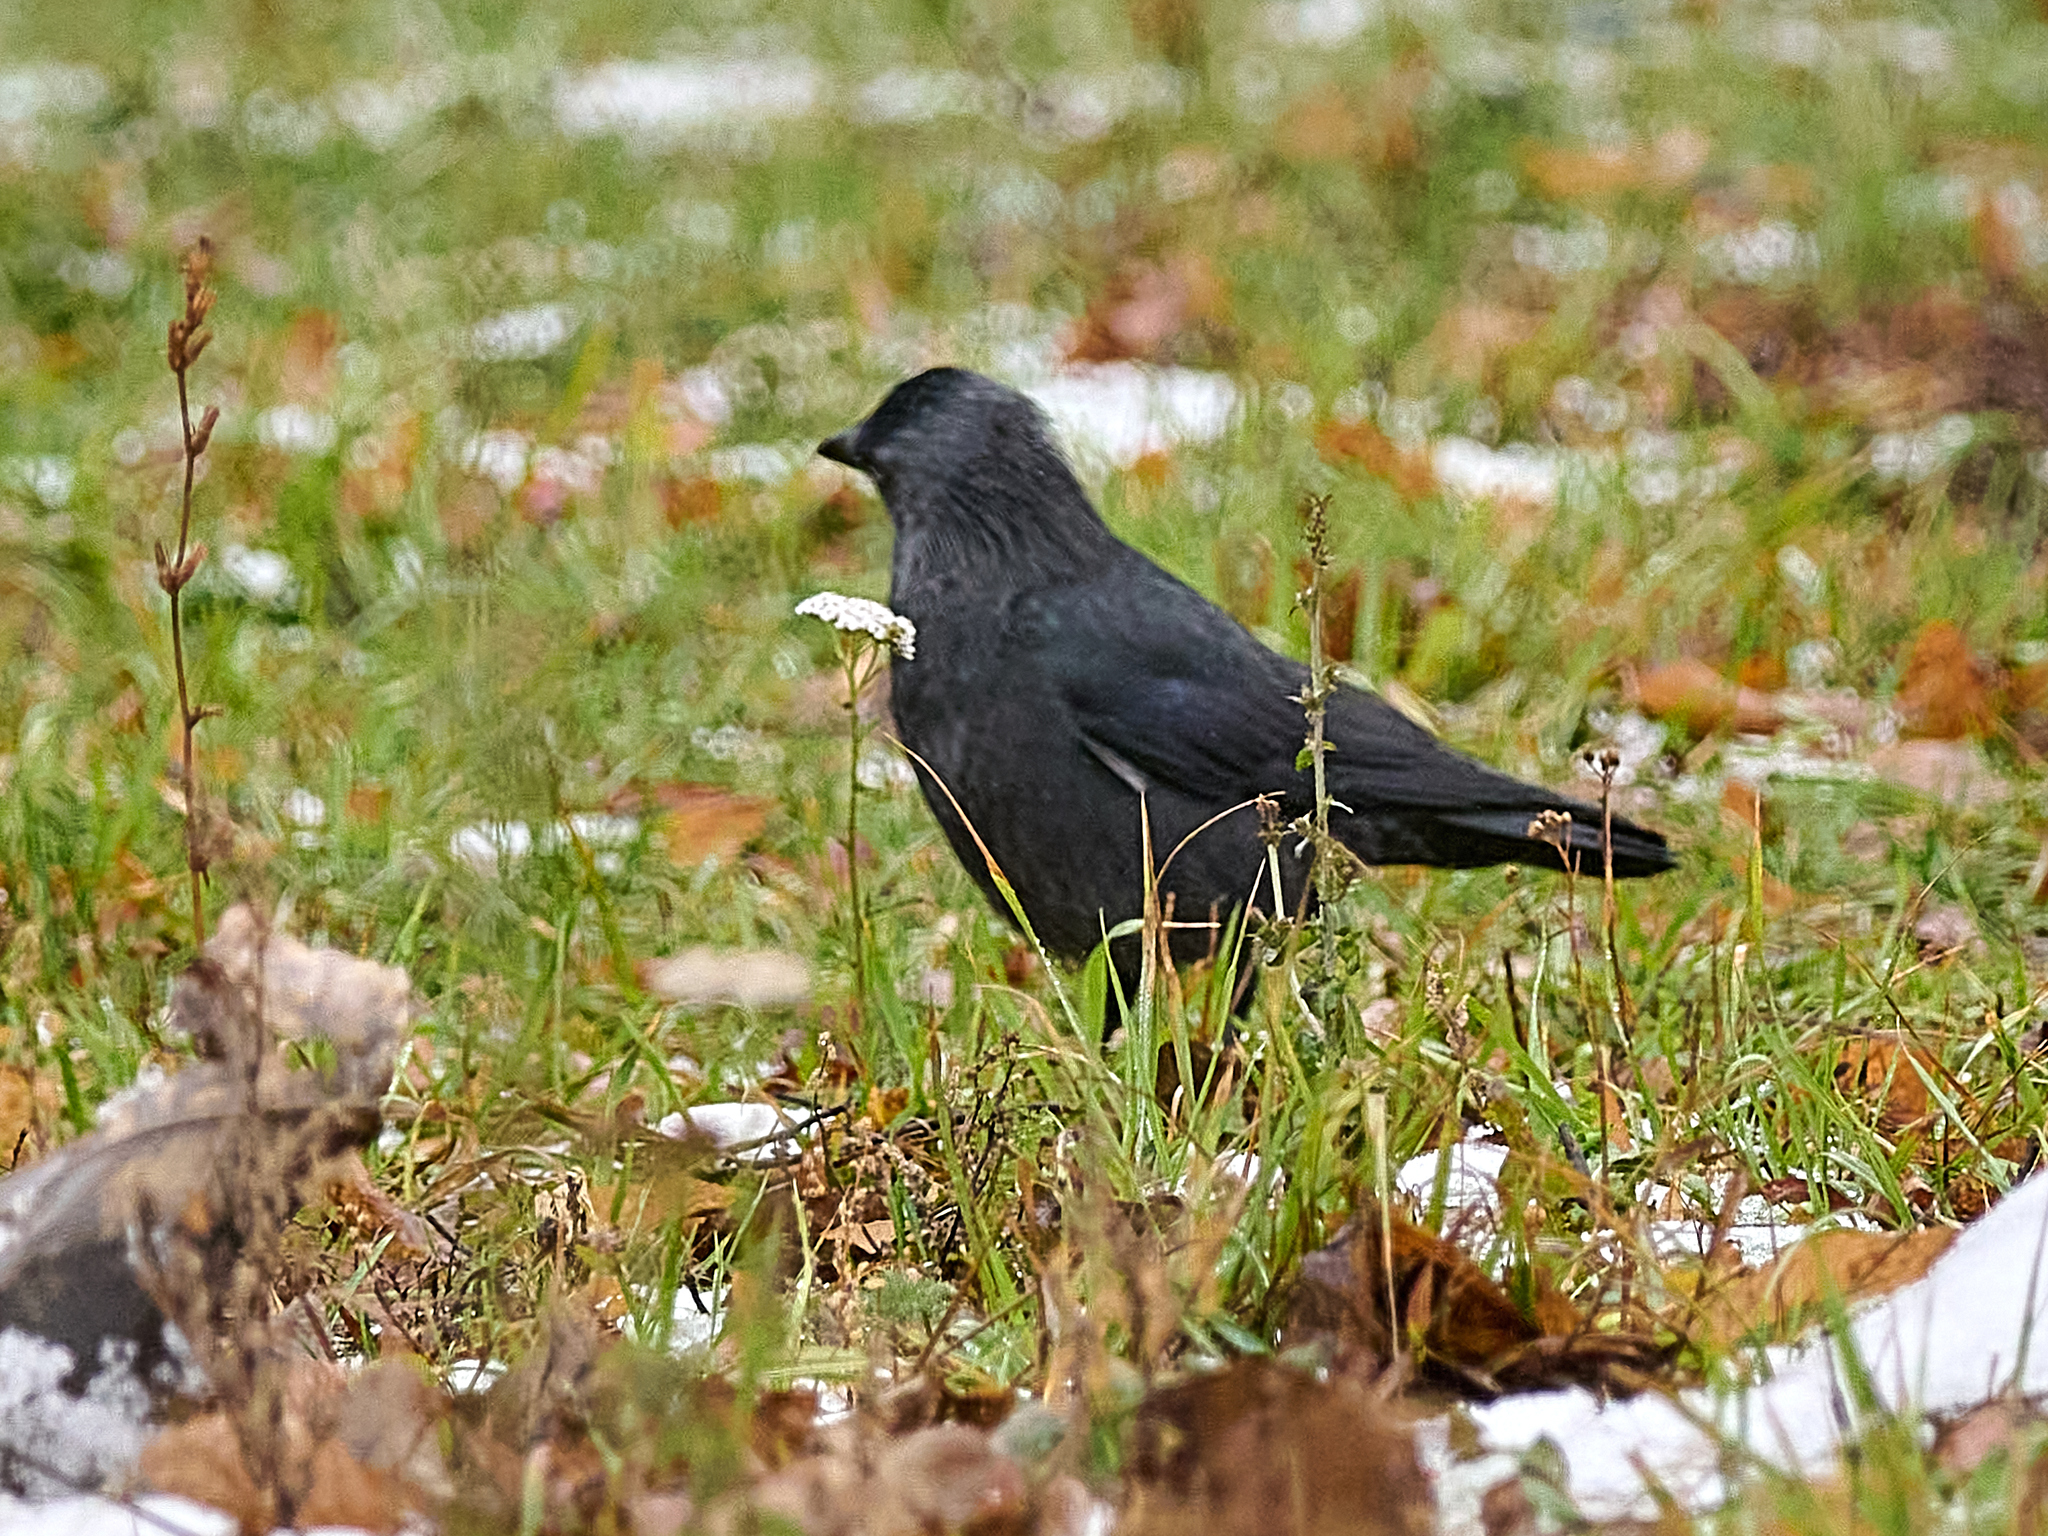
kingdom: Animalia
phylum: Chordata
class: Aves
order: Passeriformes
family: Corvidae
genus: Coloeus
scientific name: Coloeus monedula
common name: Western jackdaw
